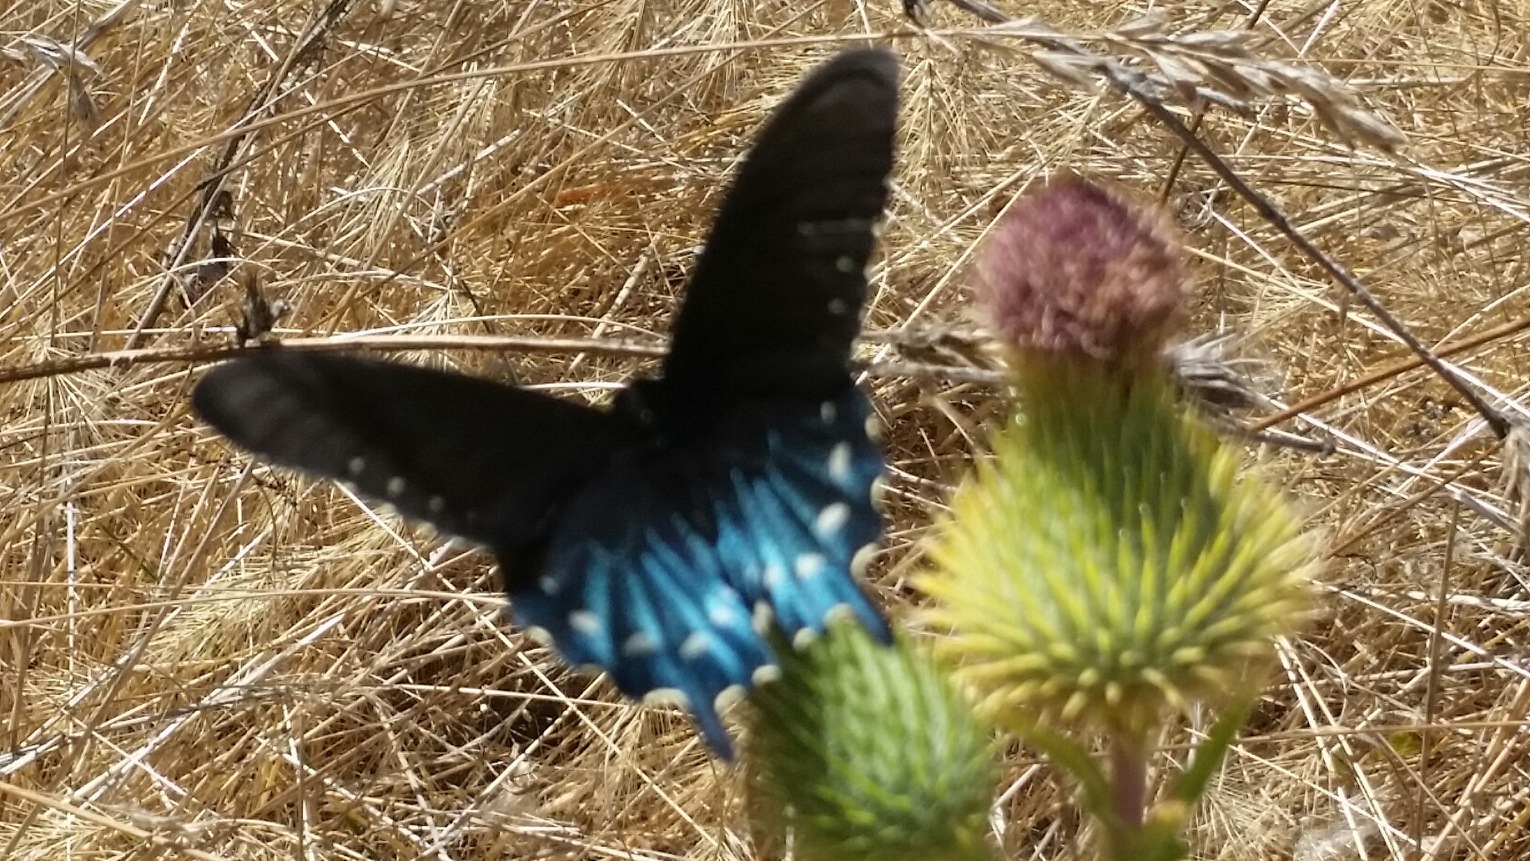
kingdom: Animalia
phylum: Arthropoda
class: Insecta
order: Lepidoptera
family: Papilionidae
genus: Battus
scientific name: Battus philenor
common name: Pipevine swallowtail
